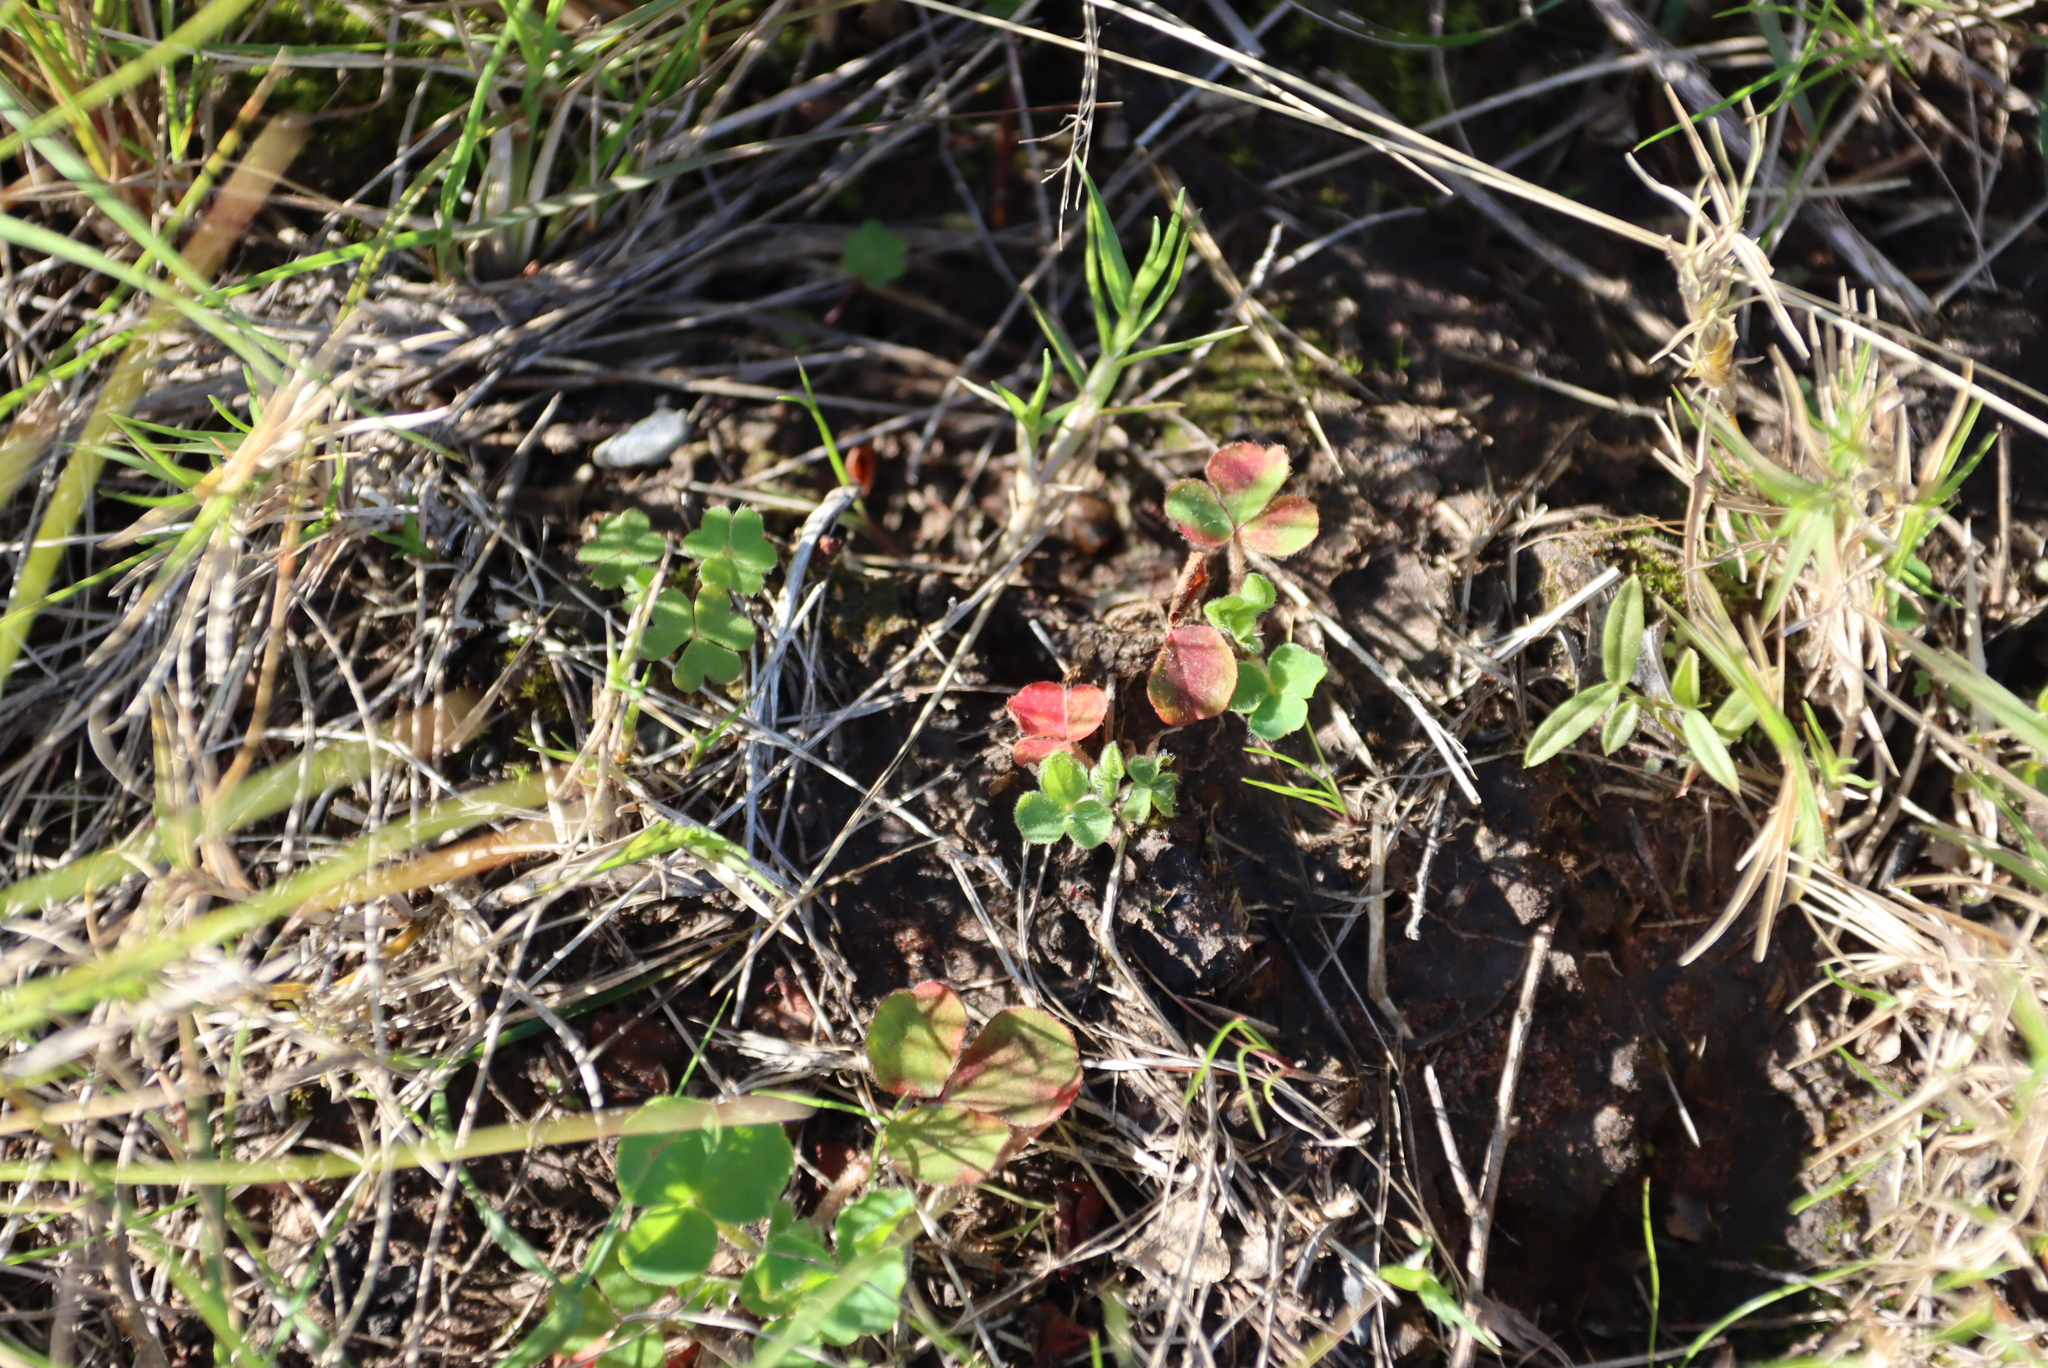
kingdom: Plantae
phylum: Tracheophyta
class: Liliopsida
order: Poales
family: Poaceae
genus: Cenchrus
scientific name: Cenchrus clandestinus
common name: Kikuyugrass
